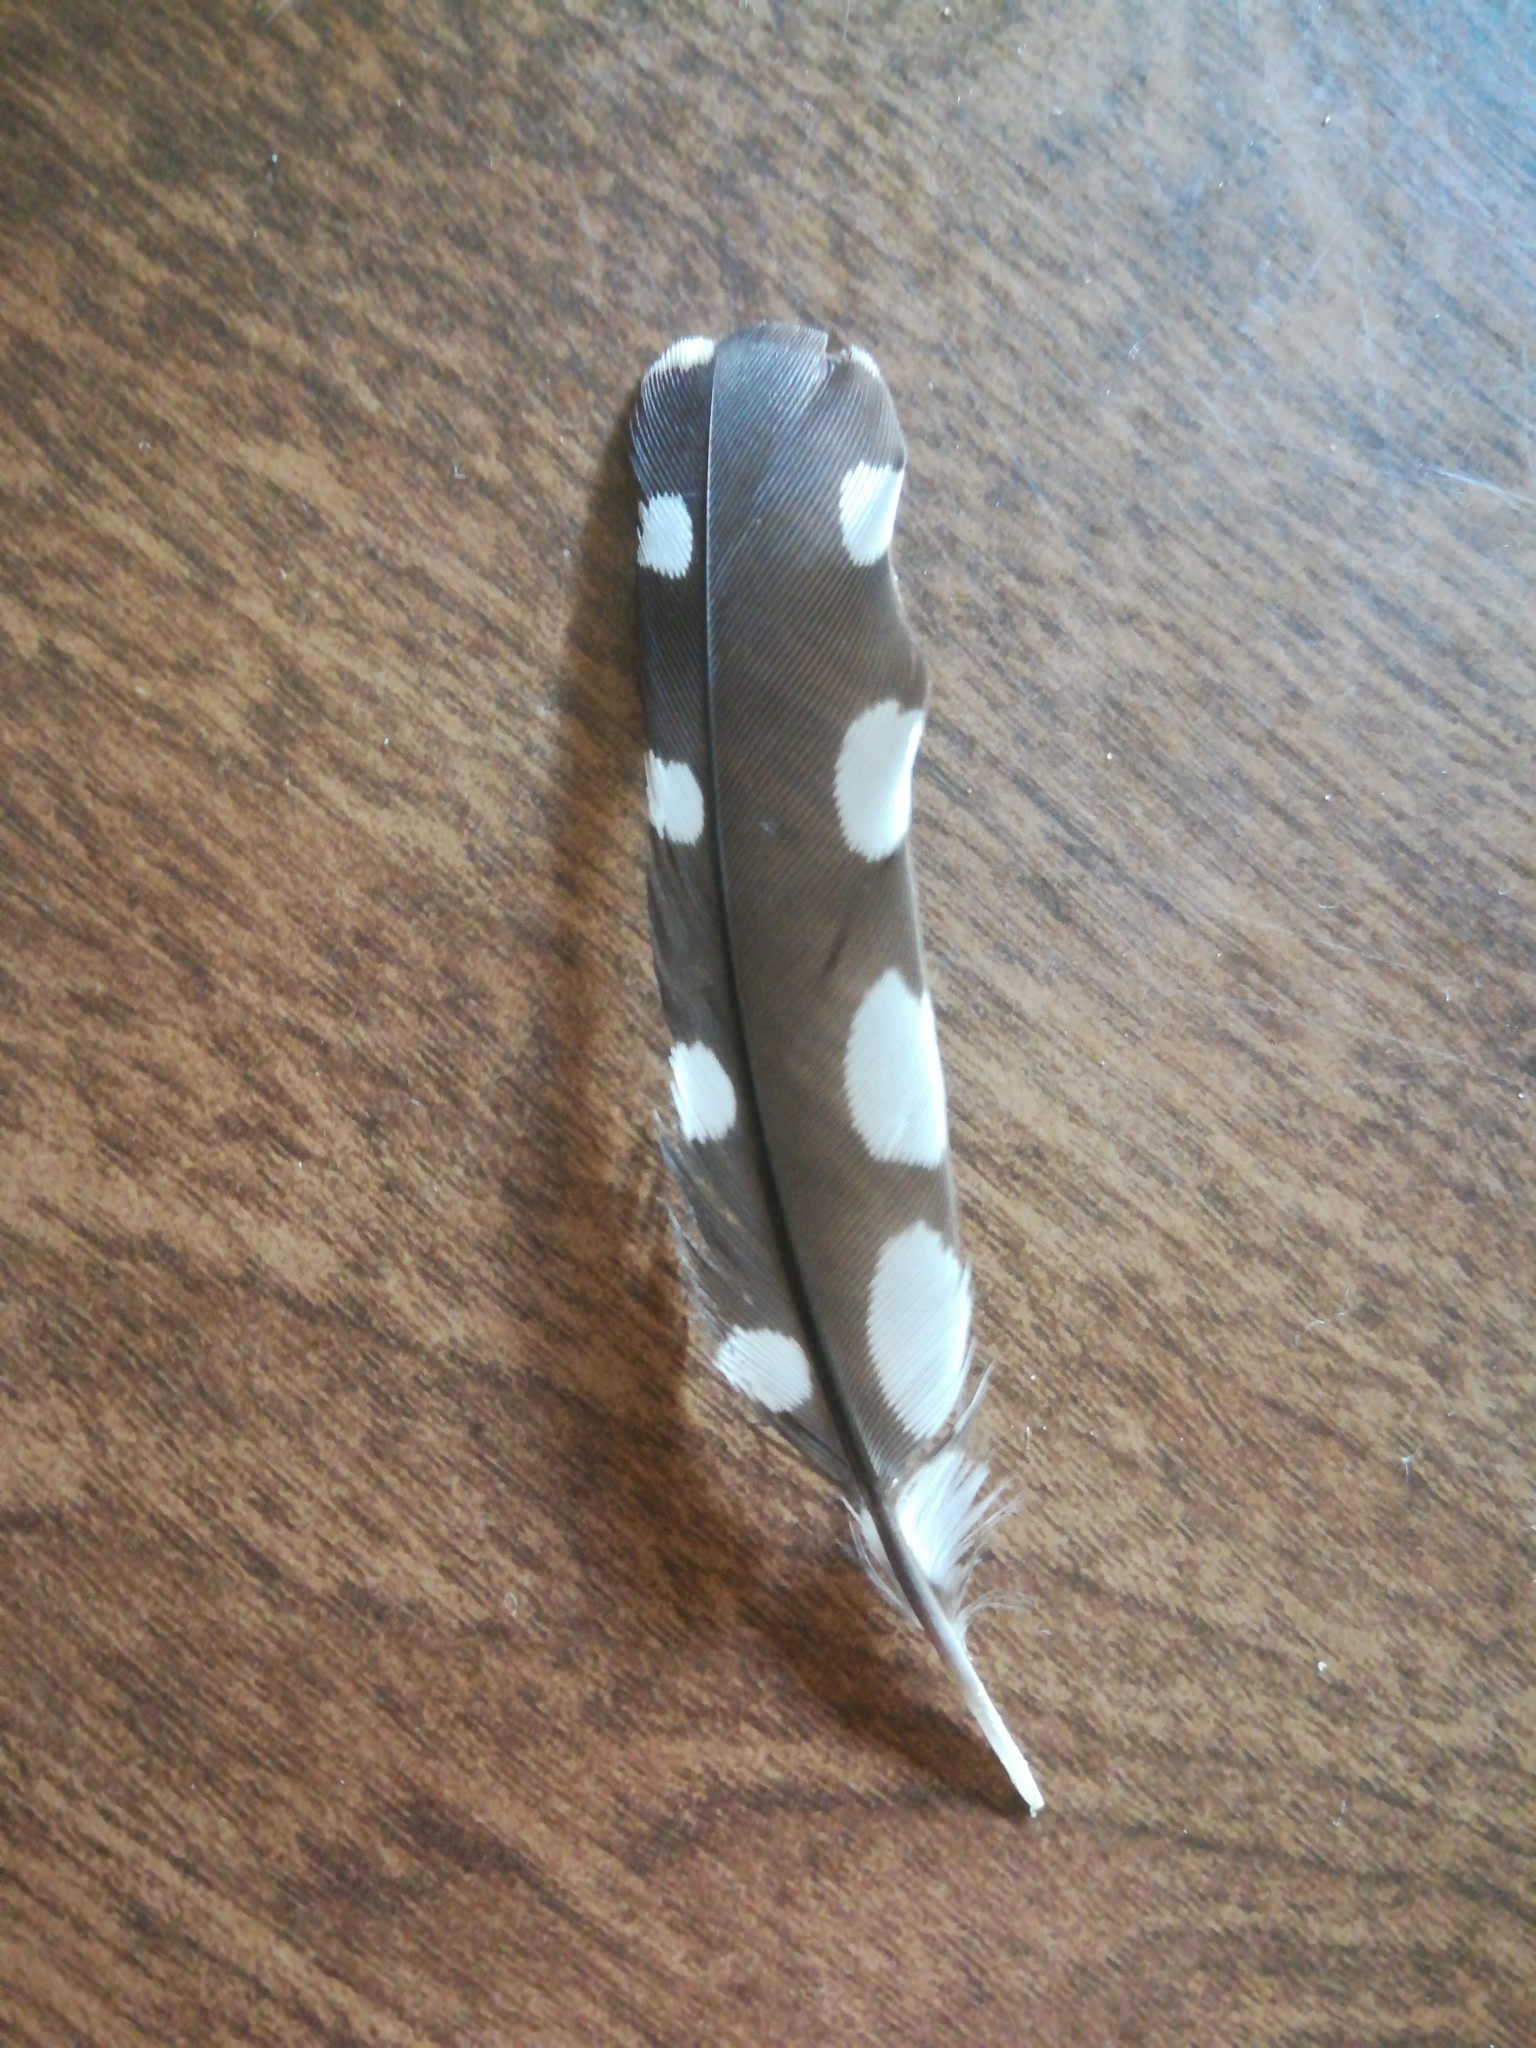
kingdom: Animalia
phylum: Chordata
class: Aves
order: Piciformes
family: Picidae
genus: Dryobates
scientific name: Dryobates pubescens
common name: Downy woodpecker
